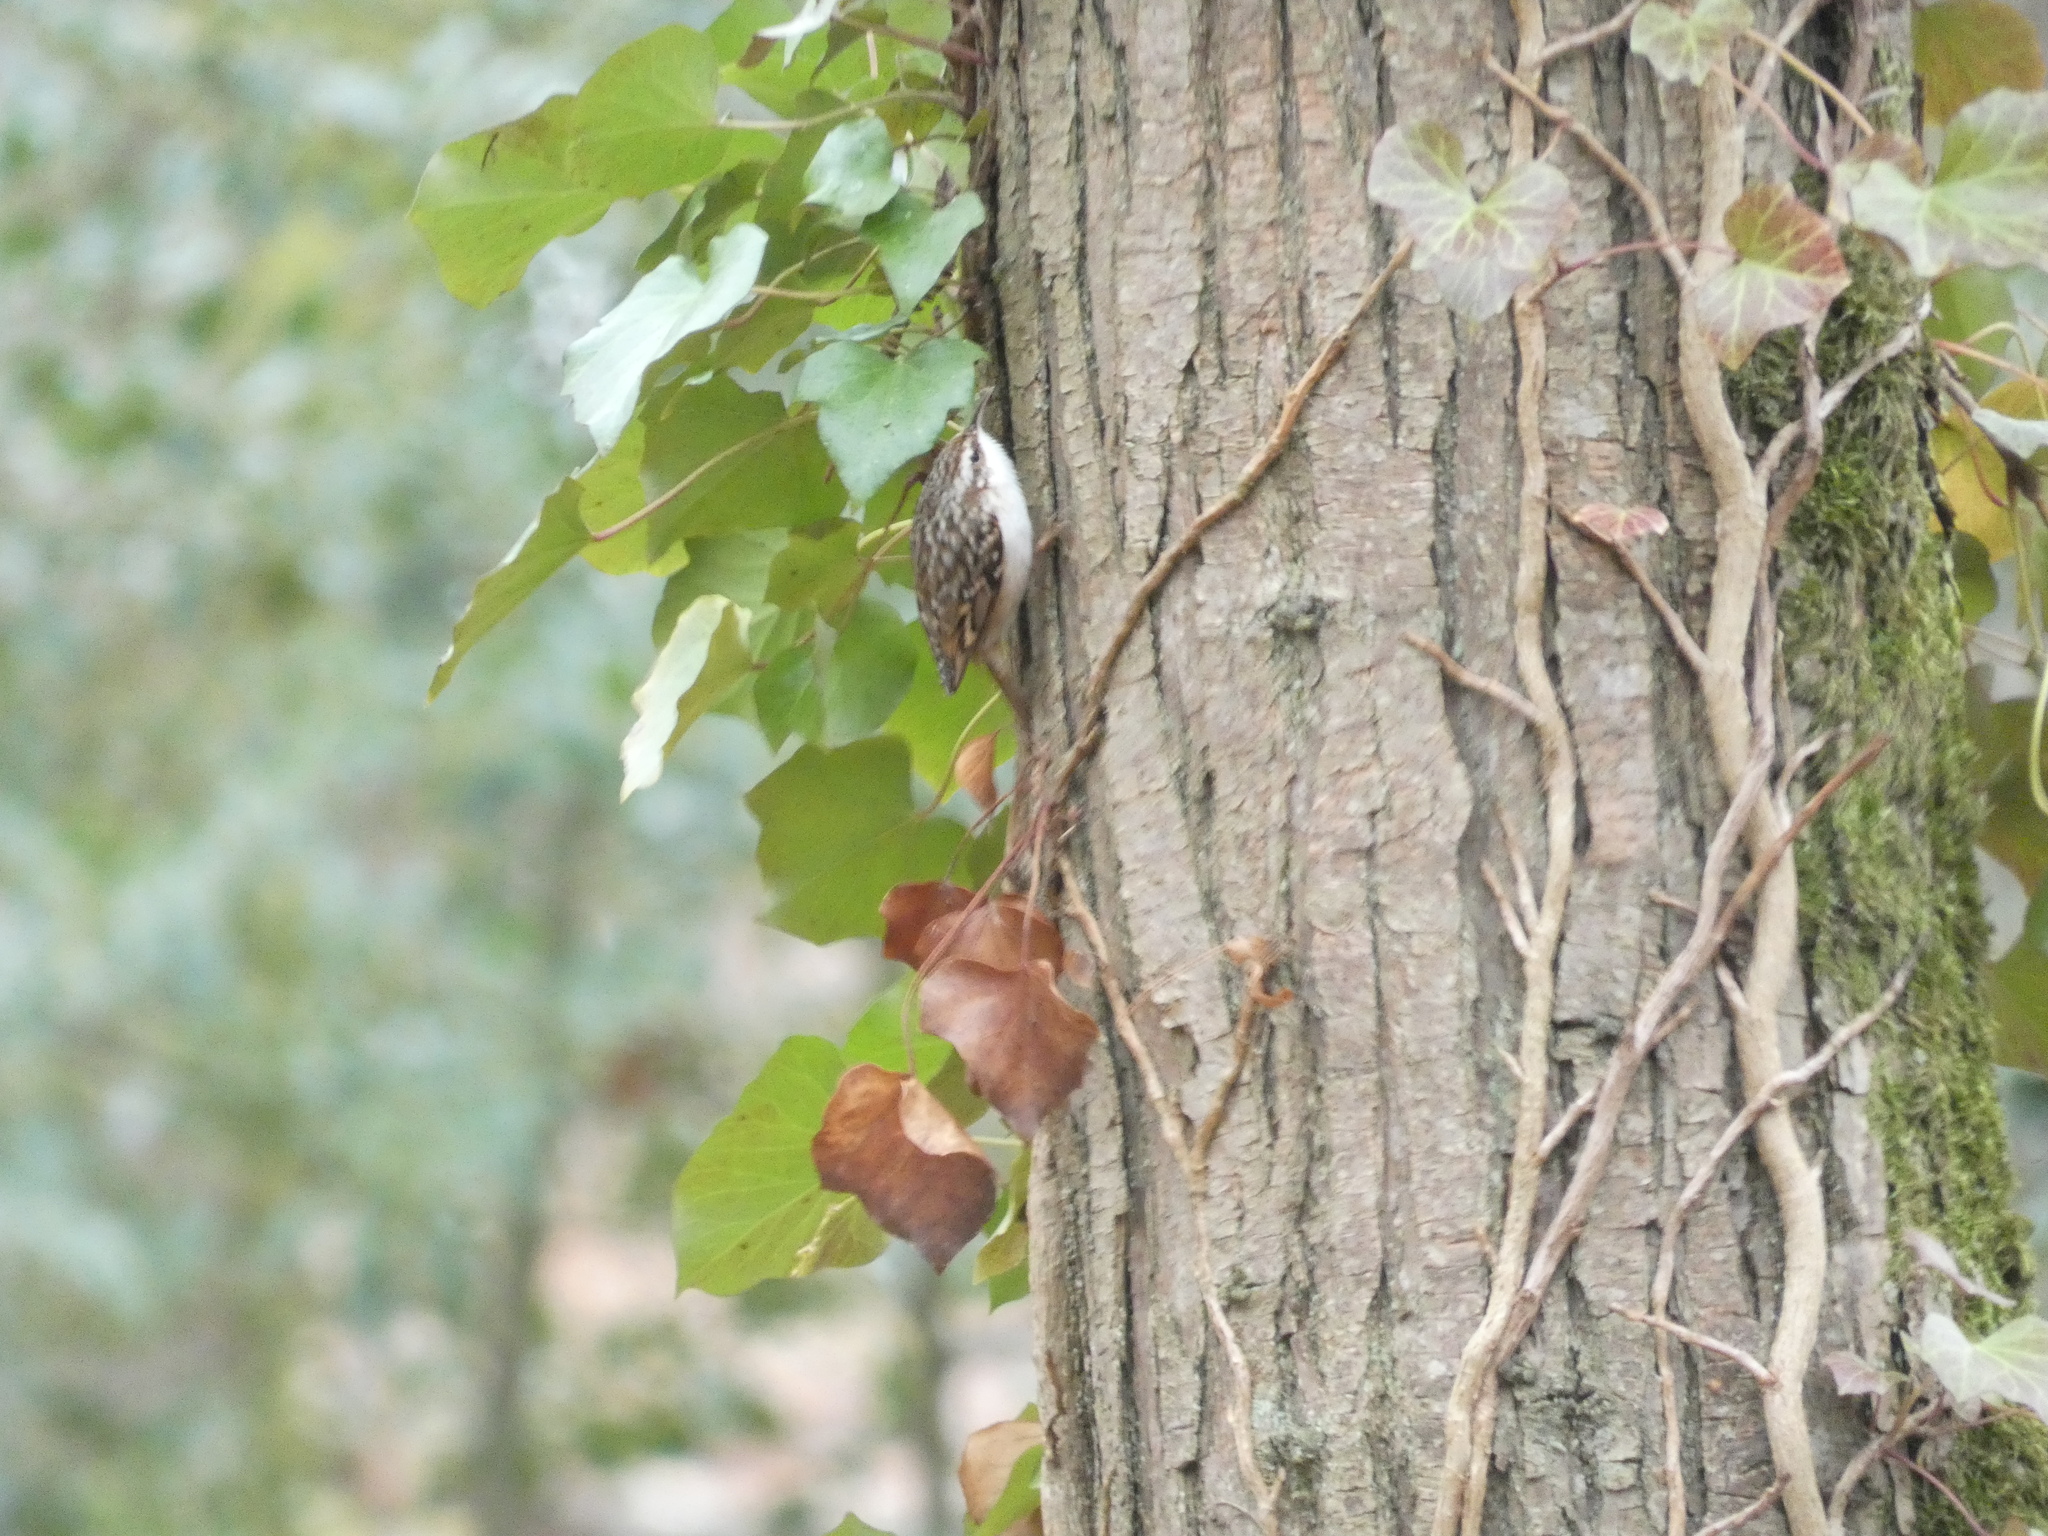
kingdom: Animalia
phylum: Chordata
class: Aves
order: Passeriformes
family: Certhiidae
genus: Certhia
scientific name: Certhia brachydactyla
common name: Short-toed treecreeper
